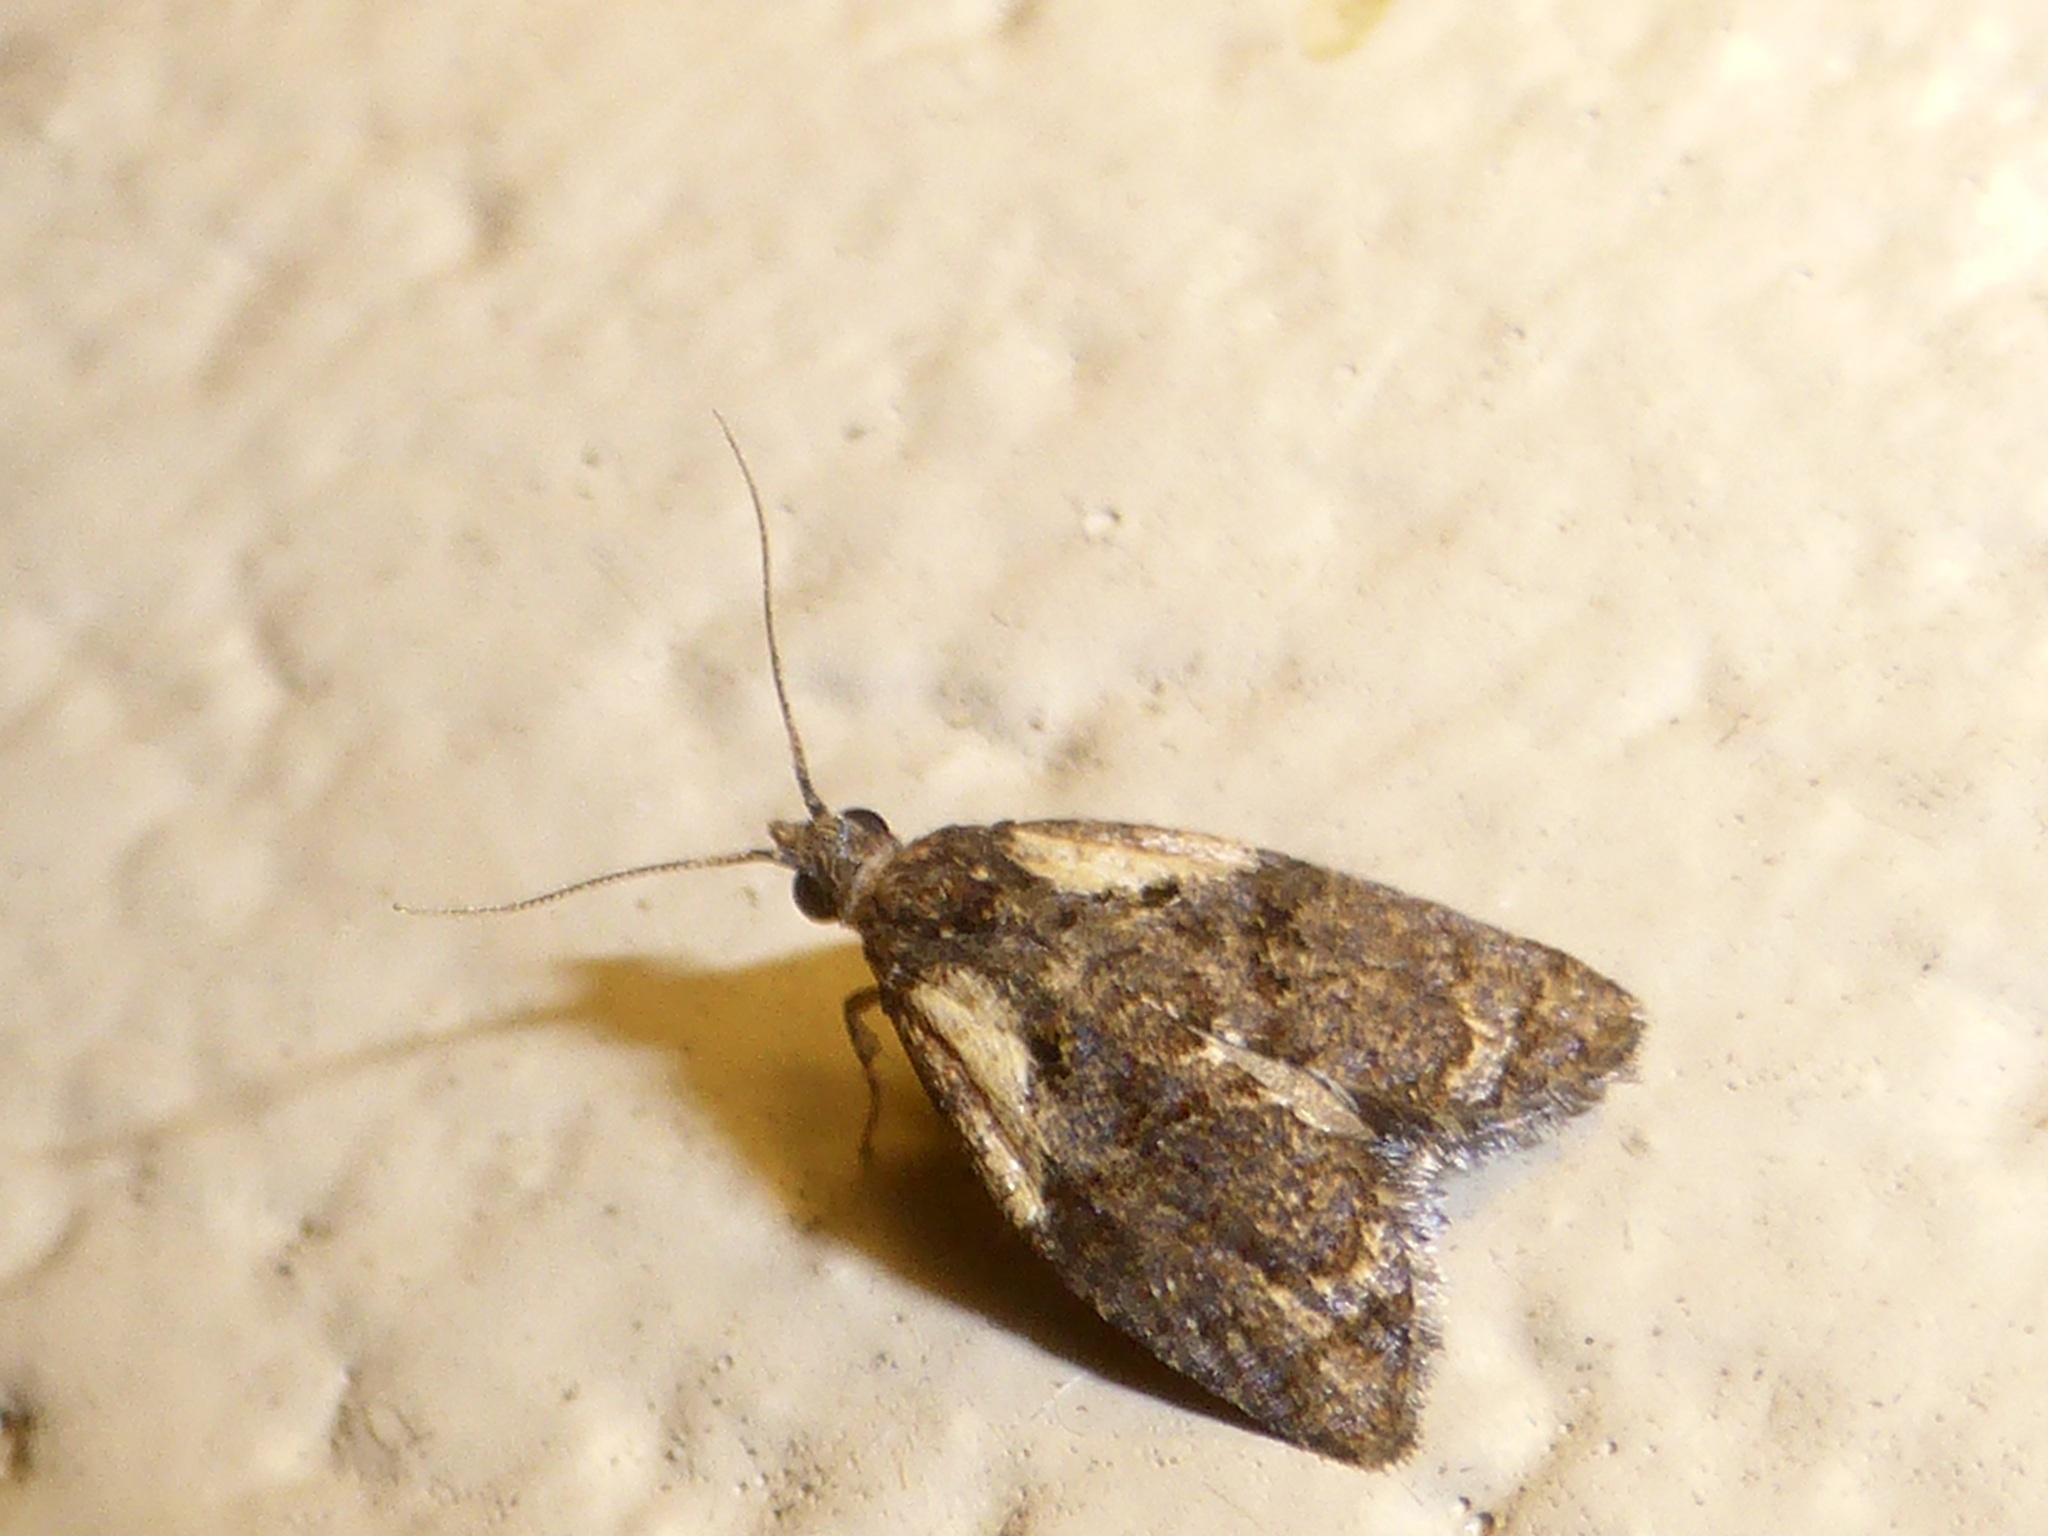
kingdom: Animalia
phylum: Arthropoda
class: Insecta
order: Lepidoptera
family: Tortricidae
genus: Capua
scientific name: Capua intractana
